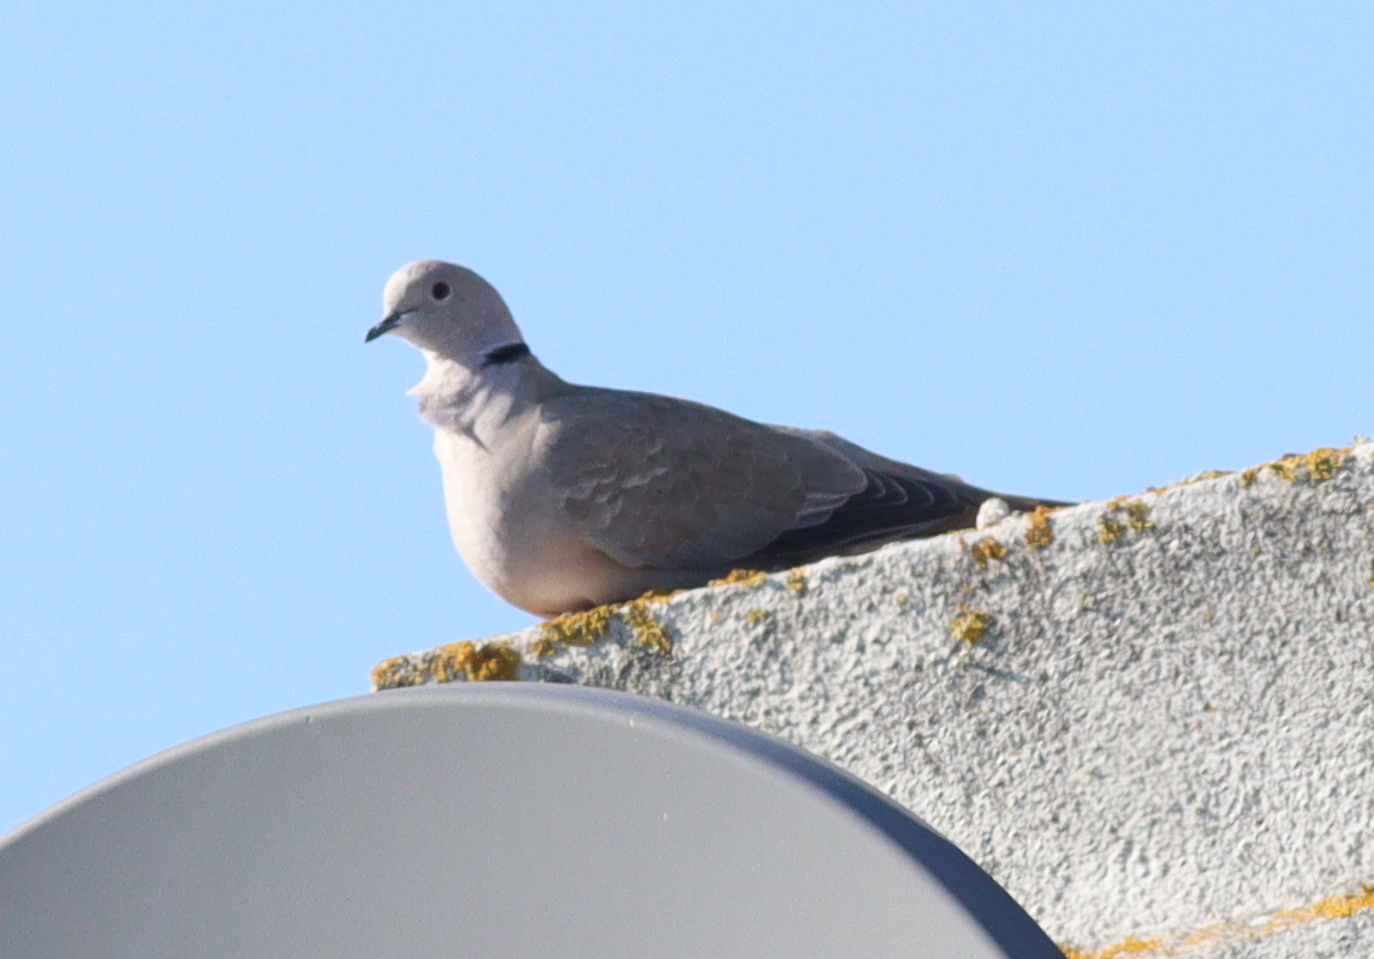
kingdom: Animalia
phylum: Chordata
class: Aves
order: Columbiformes
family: Columbidae
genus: Streptopelia
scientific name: Streptopelia decaocto
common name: Eurasian collared dove
